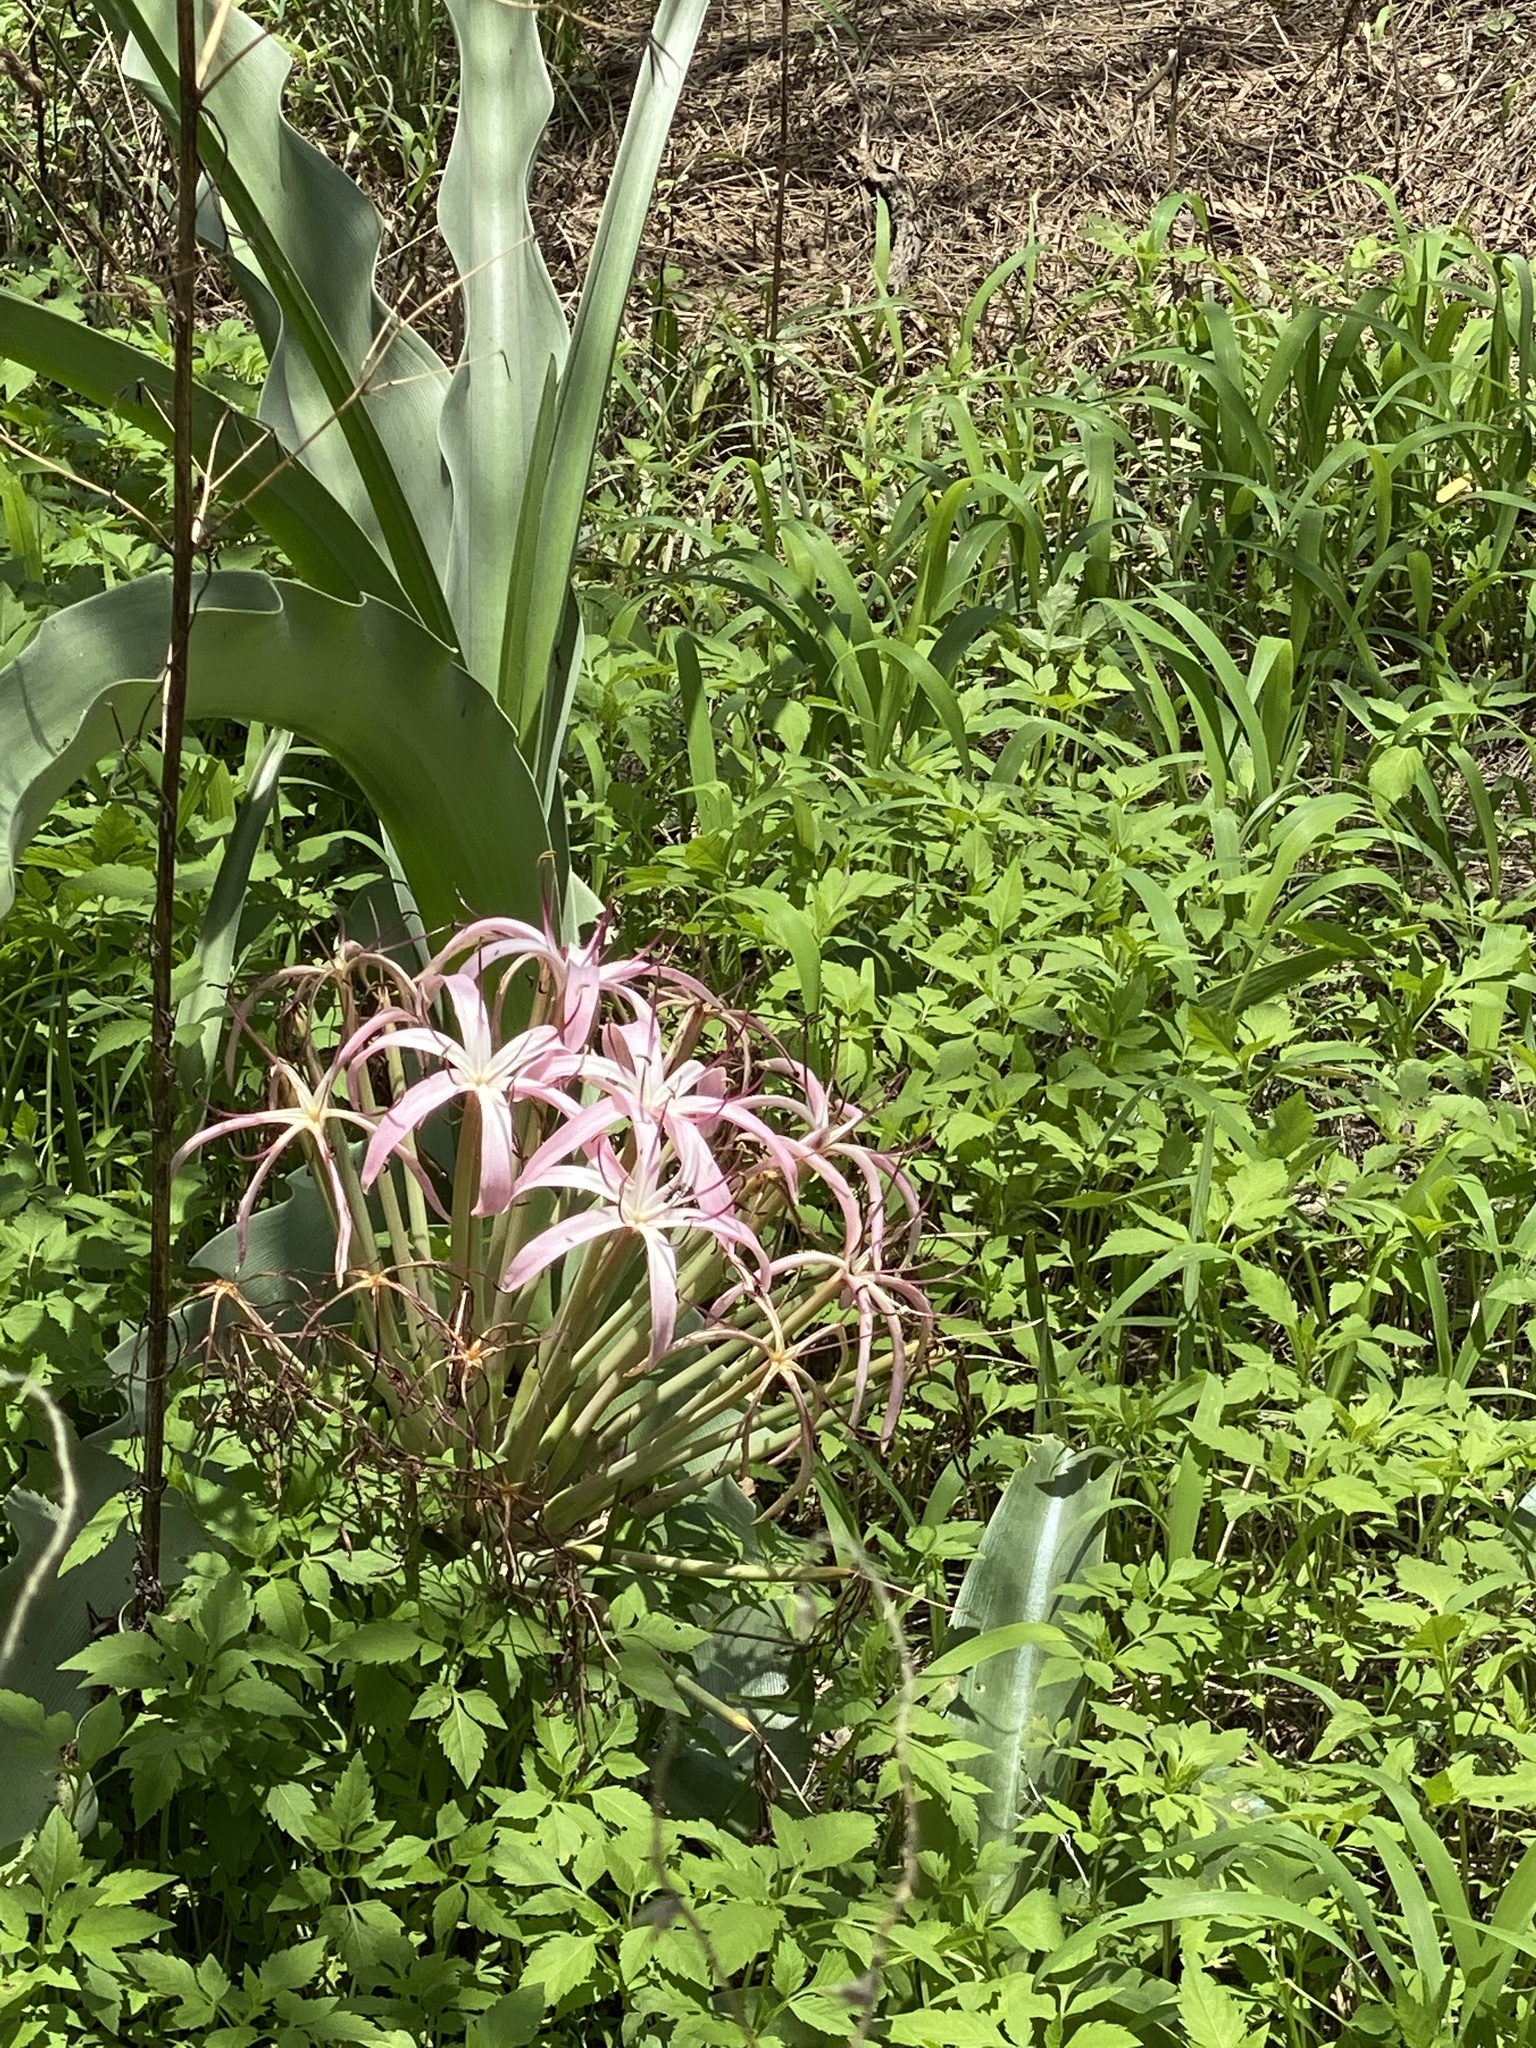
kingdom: Plantae
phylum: Tracheophyta
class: Liliopsida
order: Asparagales
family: Amaryllidaceae
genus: Crinum
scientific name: Crinum buphanoides
